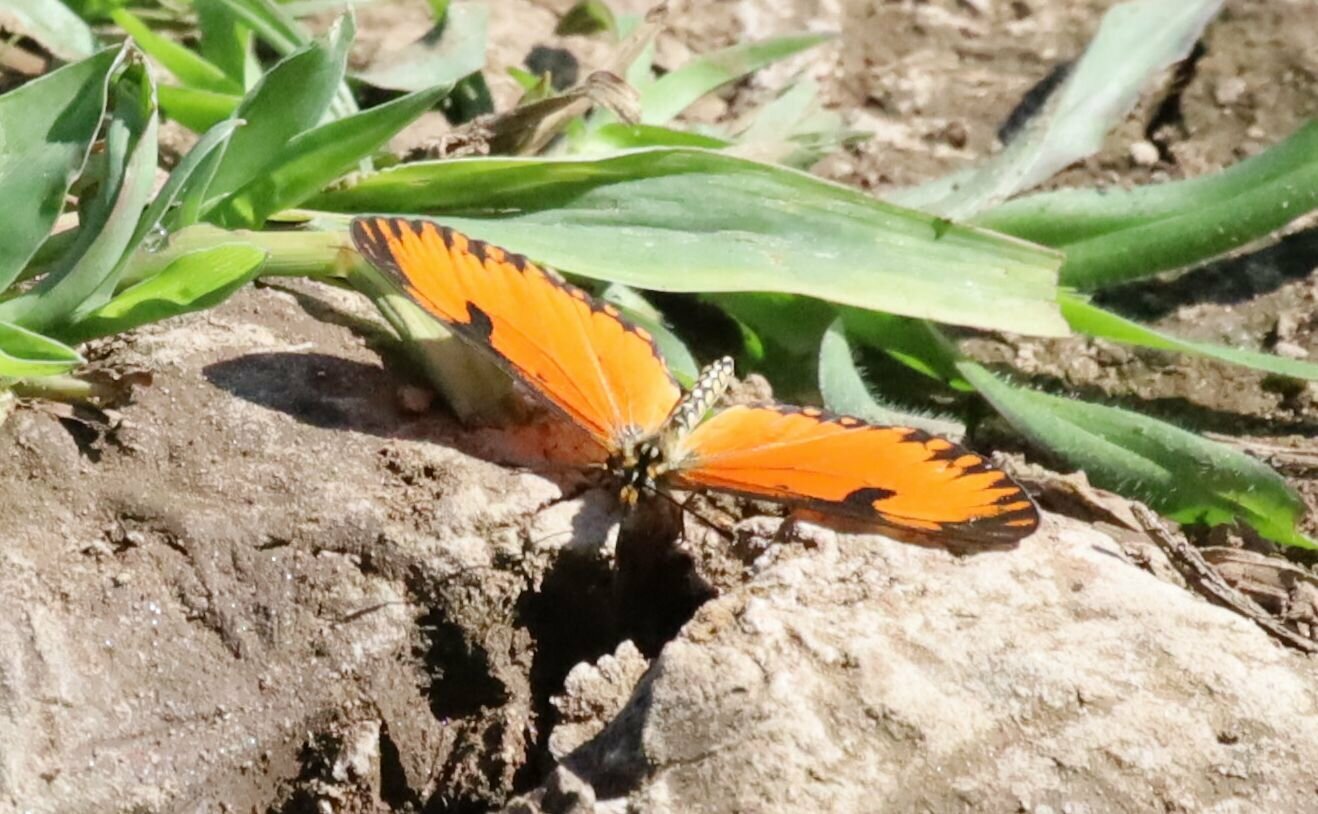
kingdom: Animalia
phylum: Arthropoda
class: Insecta
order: Lepidoptera
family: Nymphalidae
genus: Acraea
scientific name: Acraea Telchinia serena
